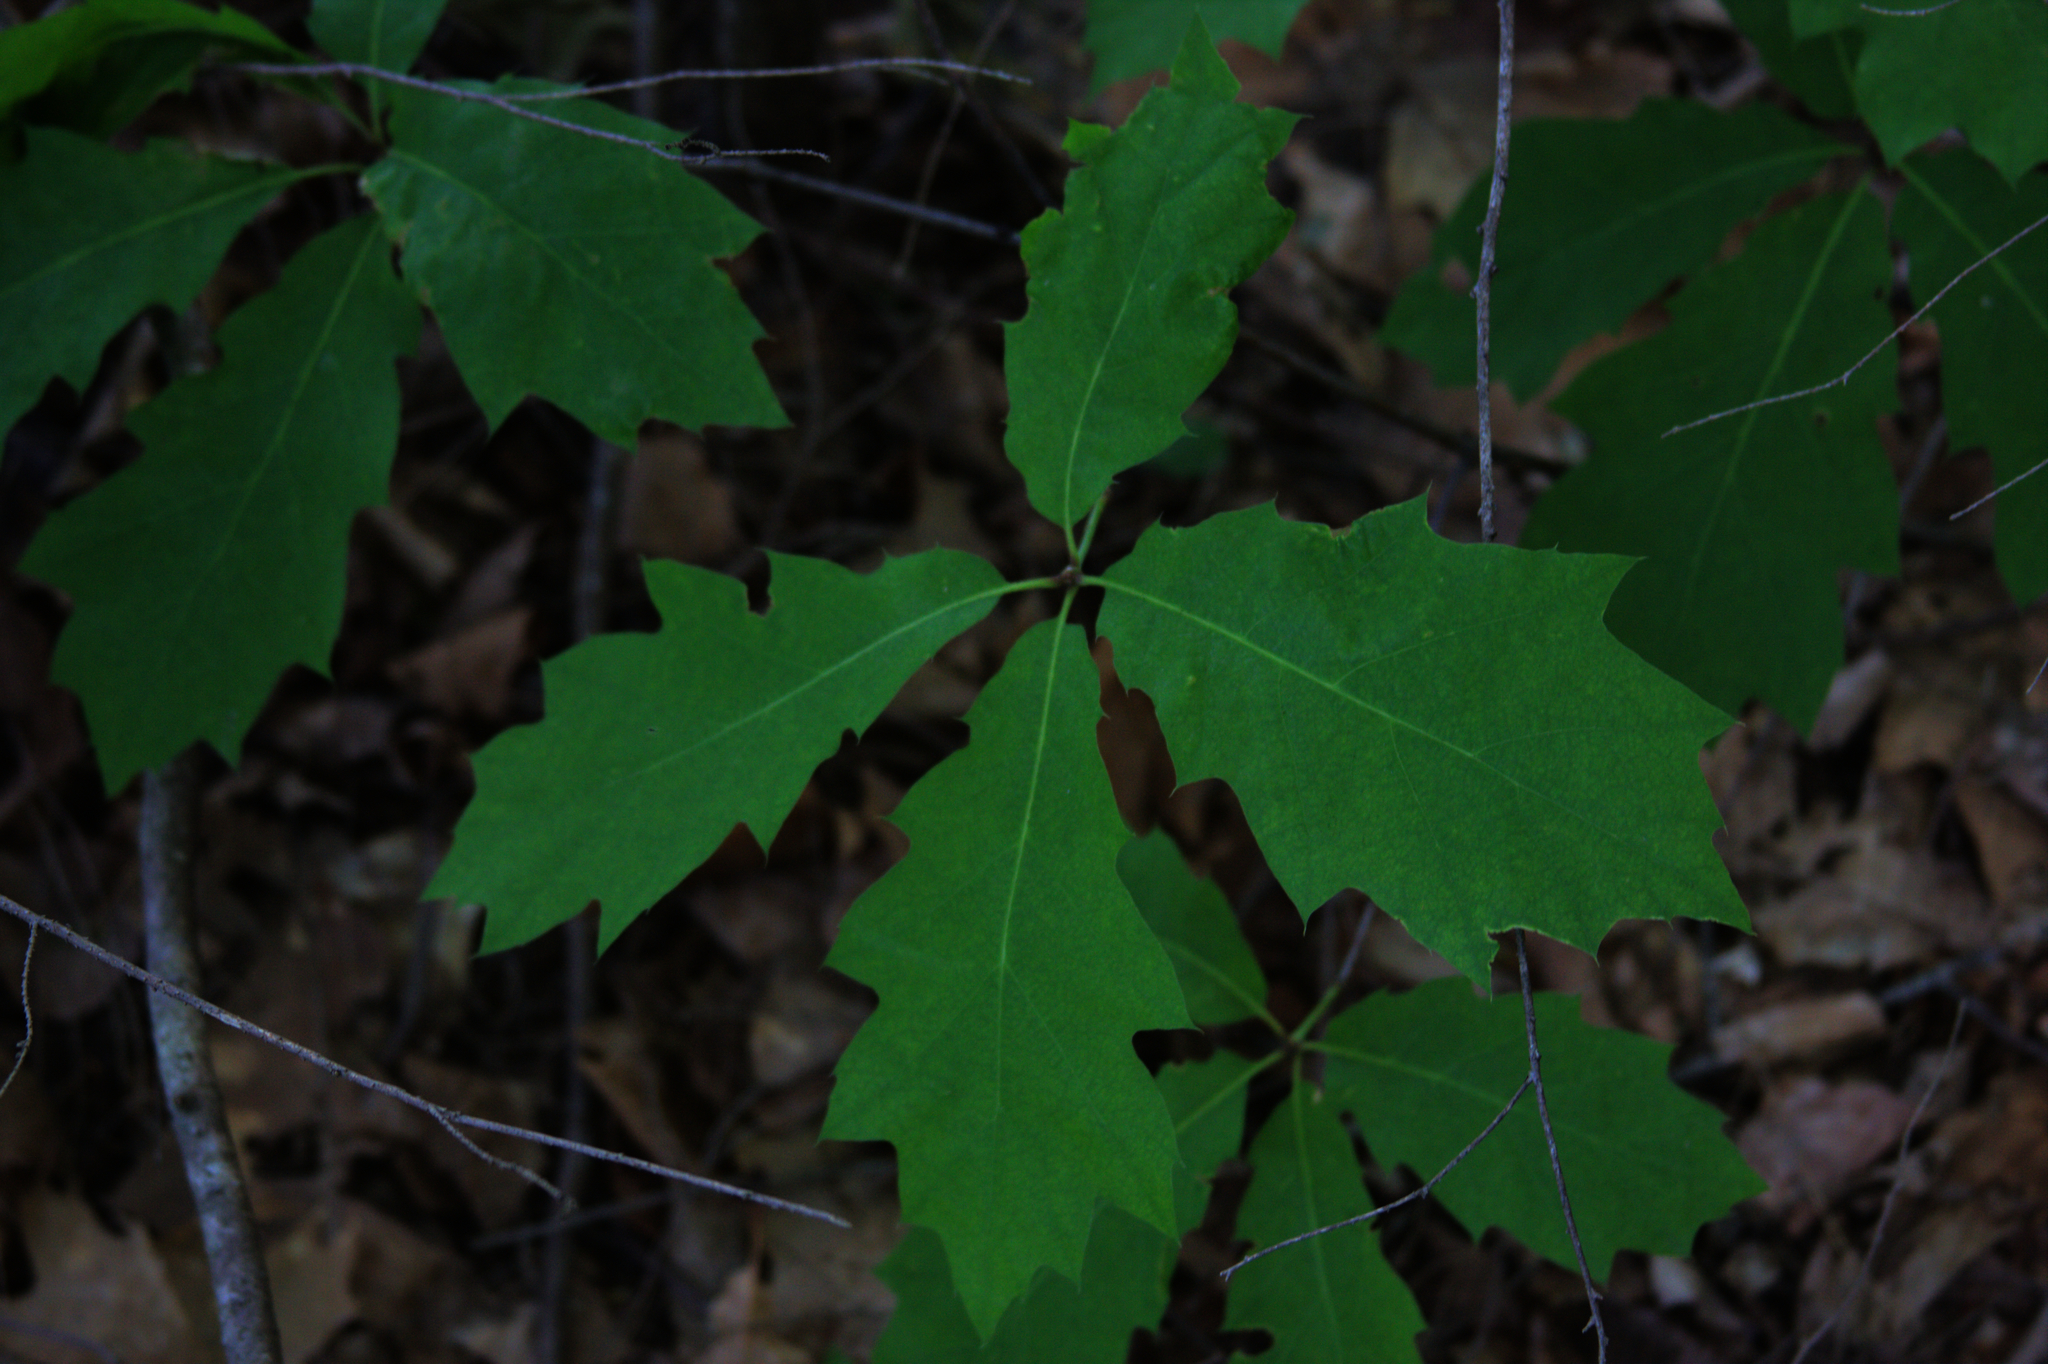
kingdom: Plantae
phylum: Tracheophyta
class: Magnoliopsida
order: Fagales
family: Fagaceae
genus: Quercus
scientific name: Quercus rubra
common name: Red oak
